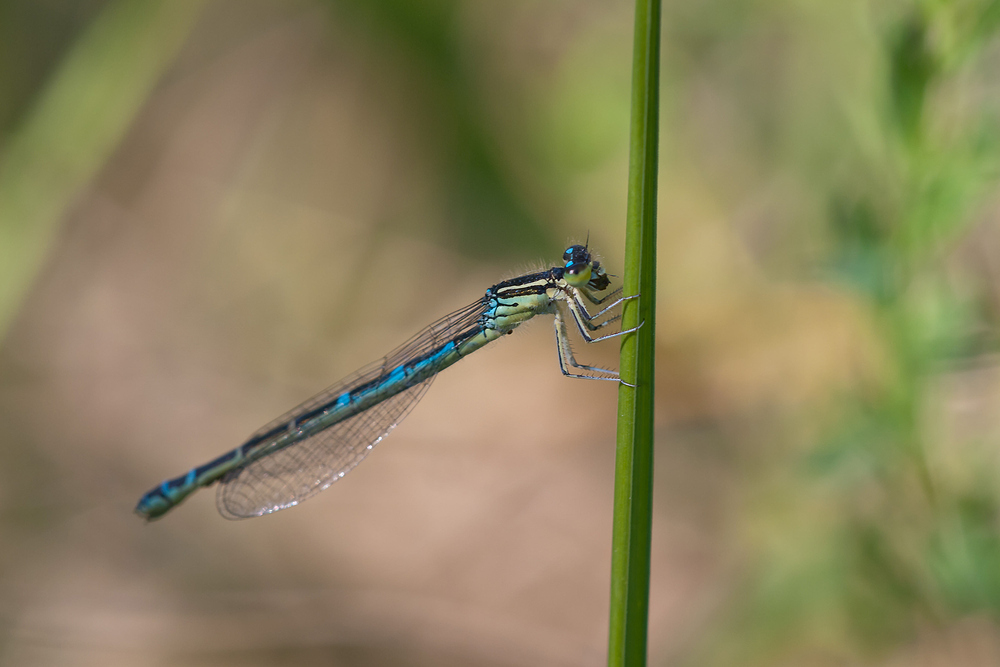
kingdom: Animalia
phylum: Arthropoda
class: Insecta
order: Odonata
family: Coenagrionidae
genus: Coenagrion
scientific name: Coenagrion scitulum
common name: Dainty bluet
